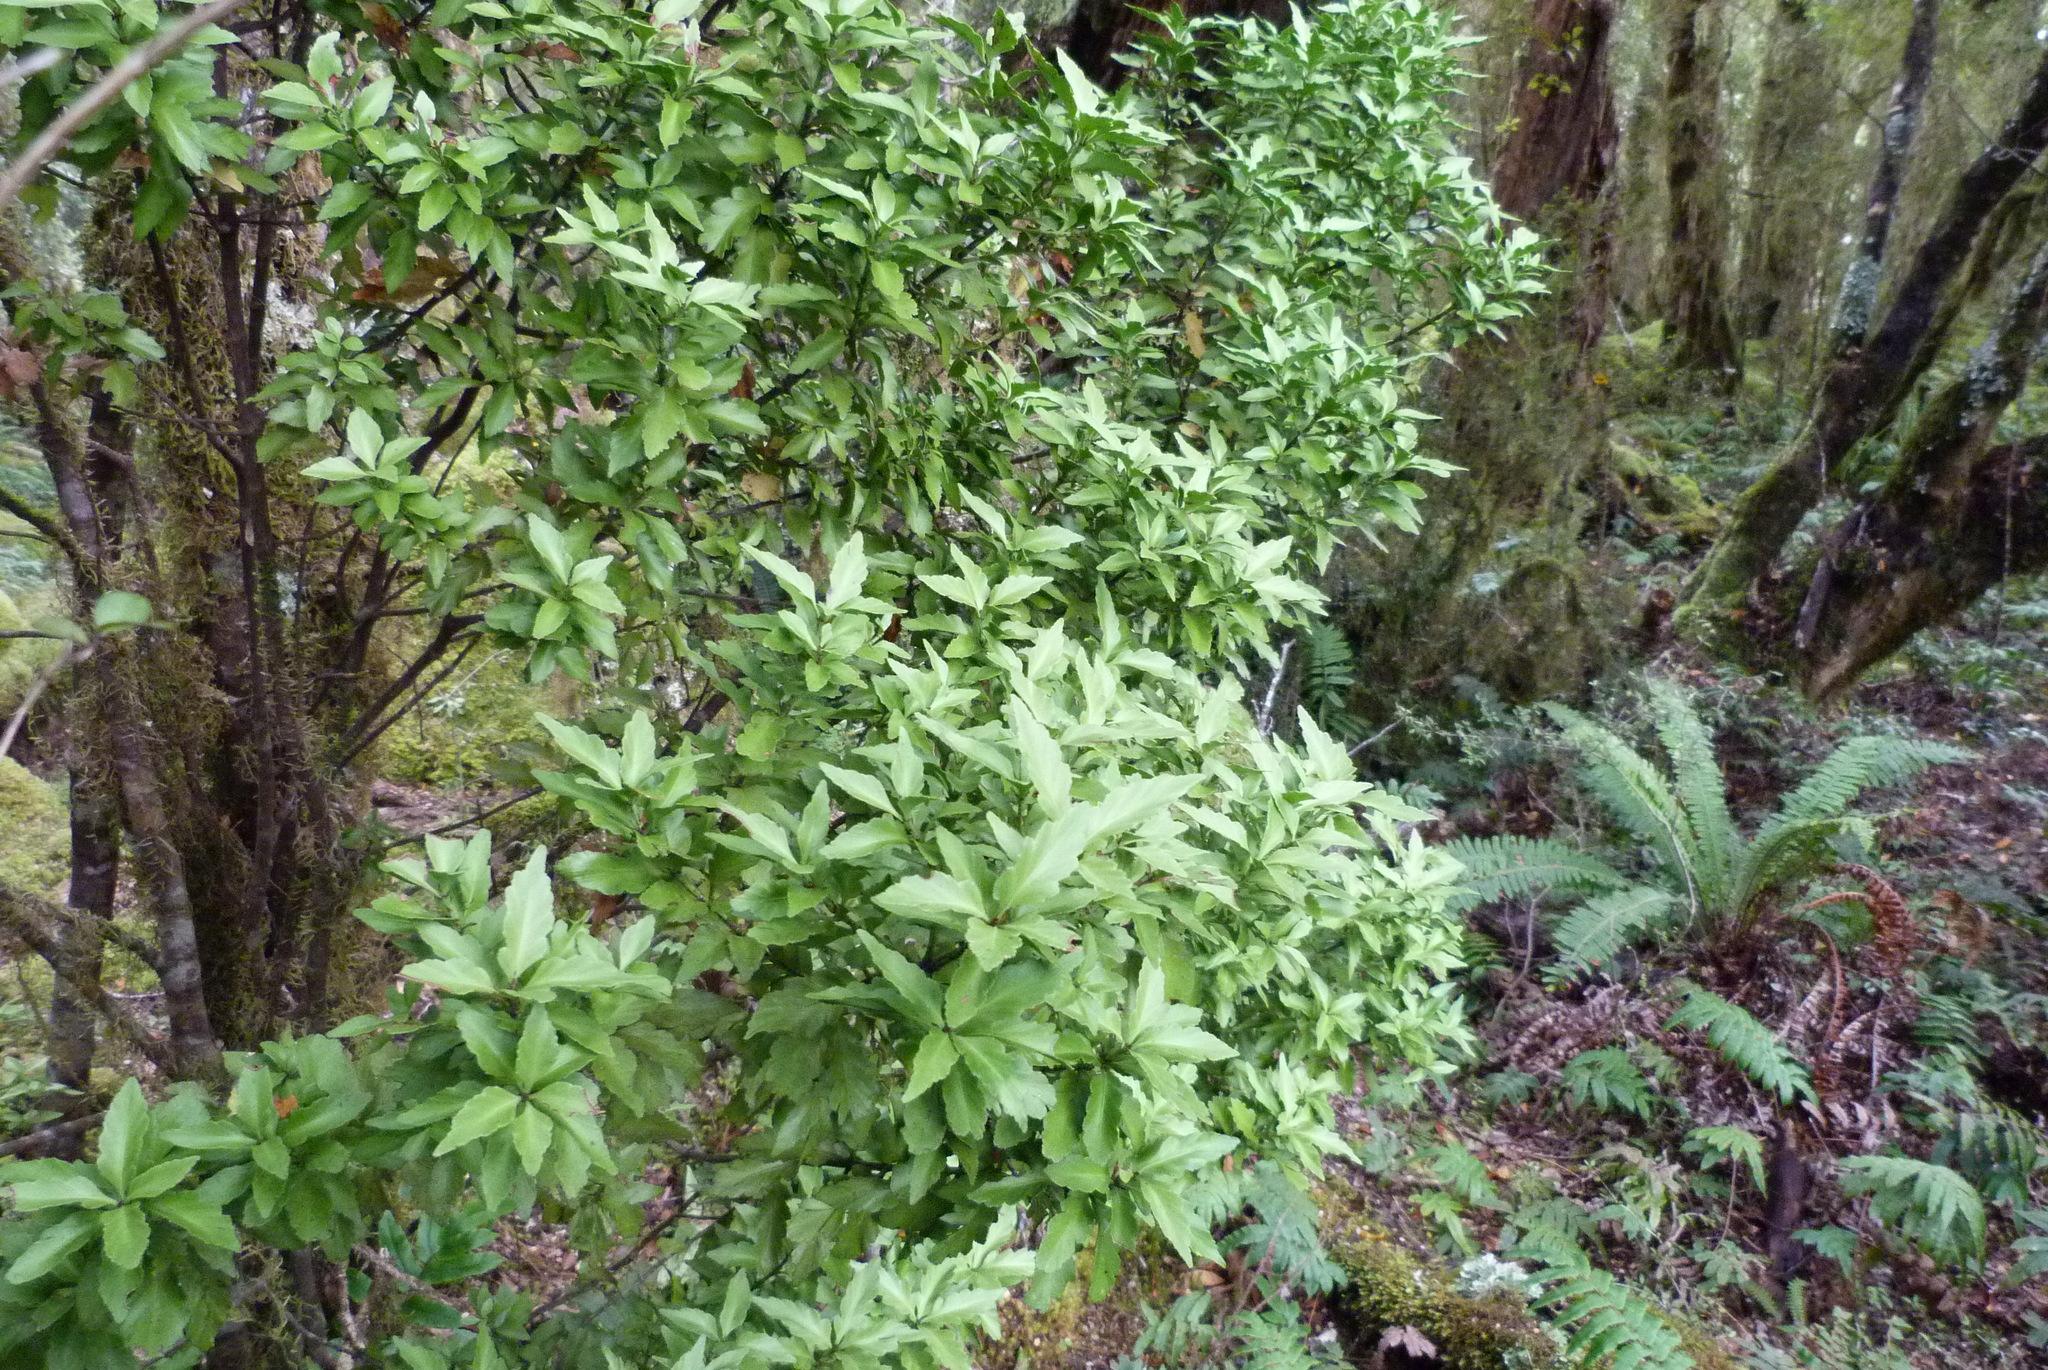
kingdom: Plantae
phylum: Tracheophyta
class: Pinopsida
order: Pinales
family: Phyllocladaceae
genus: Phyllocladus
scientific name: Phyllocladus trichomanoides
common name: Celery pine
